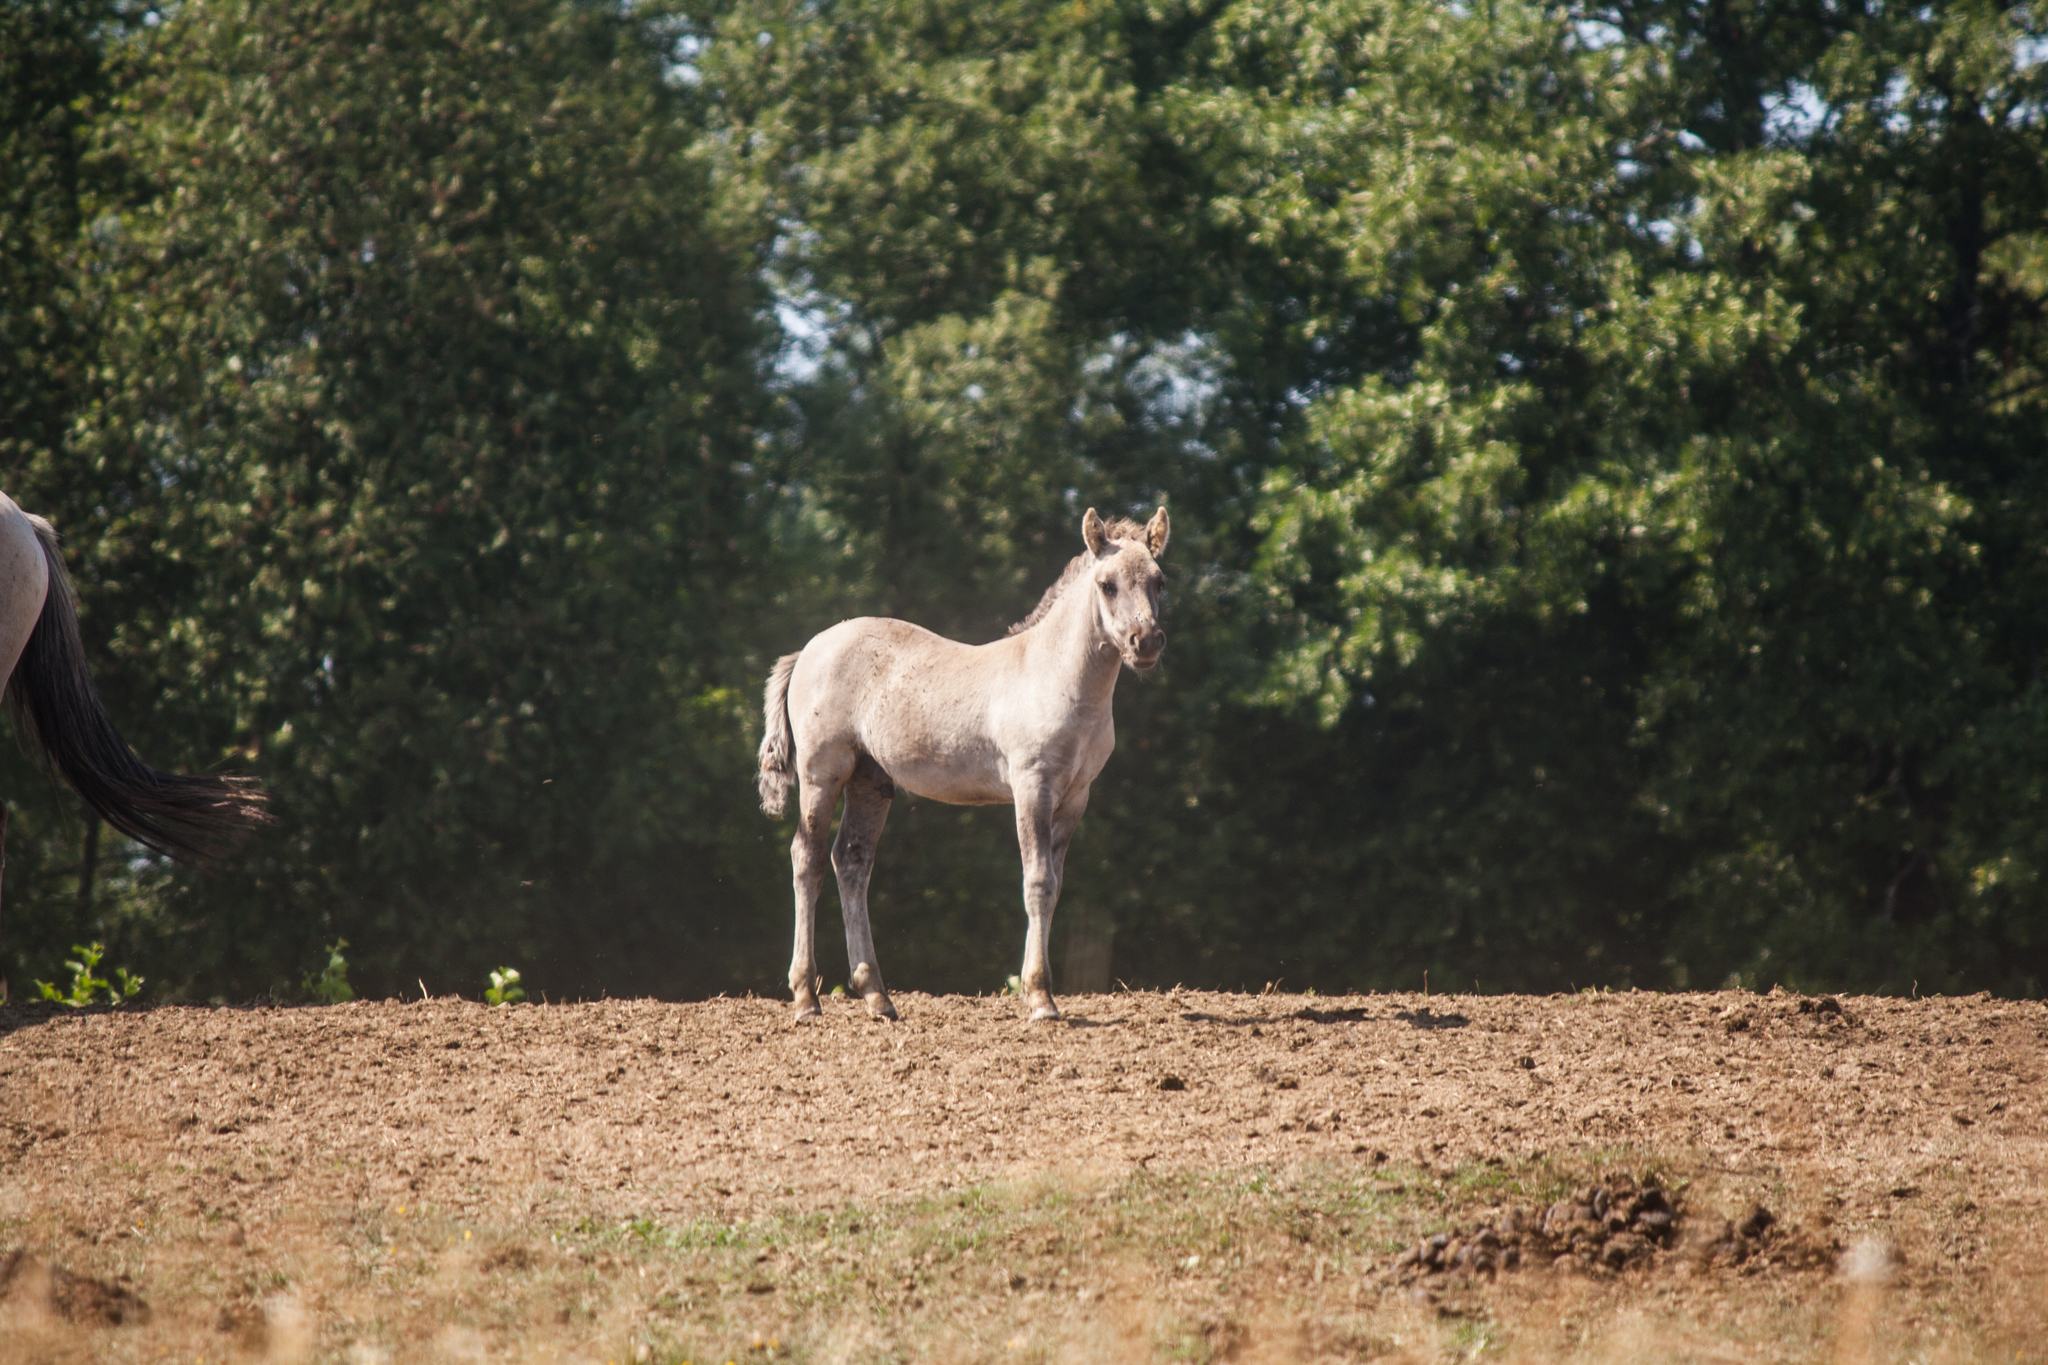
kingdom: Animalia
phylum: Chordata
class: Mammalia
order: Perissodactyla
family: Equidae
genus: Equus
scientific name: Equus caballus
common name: Horse
